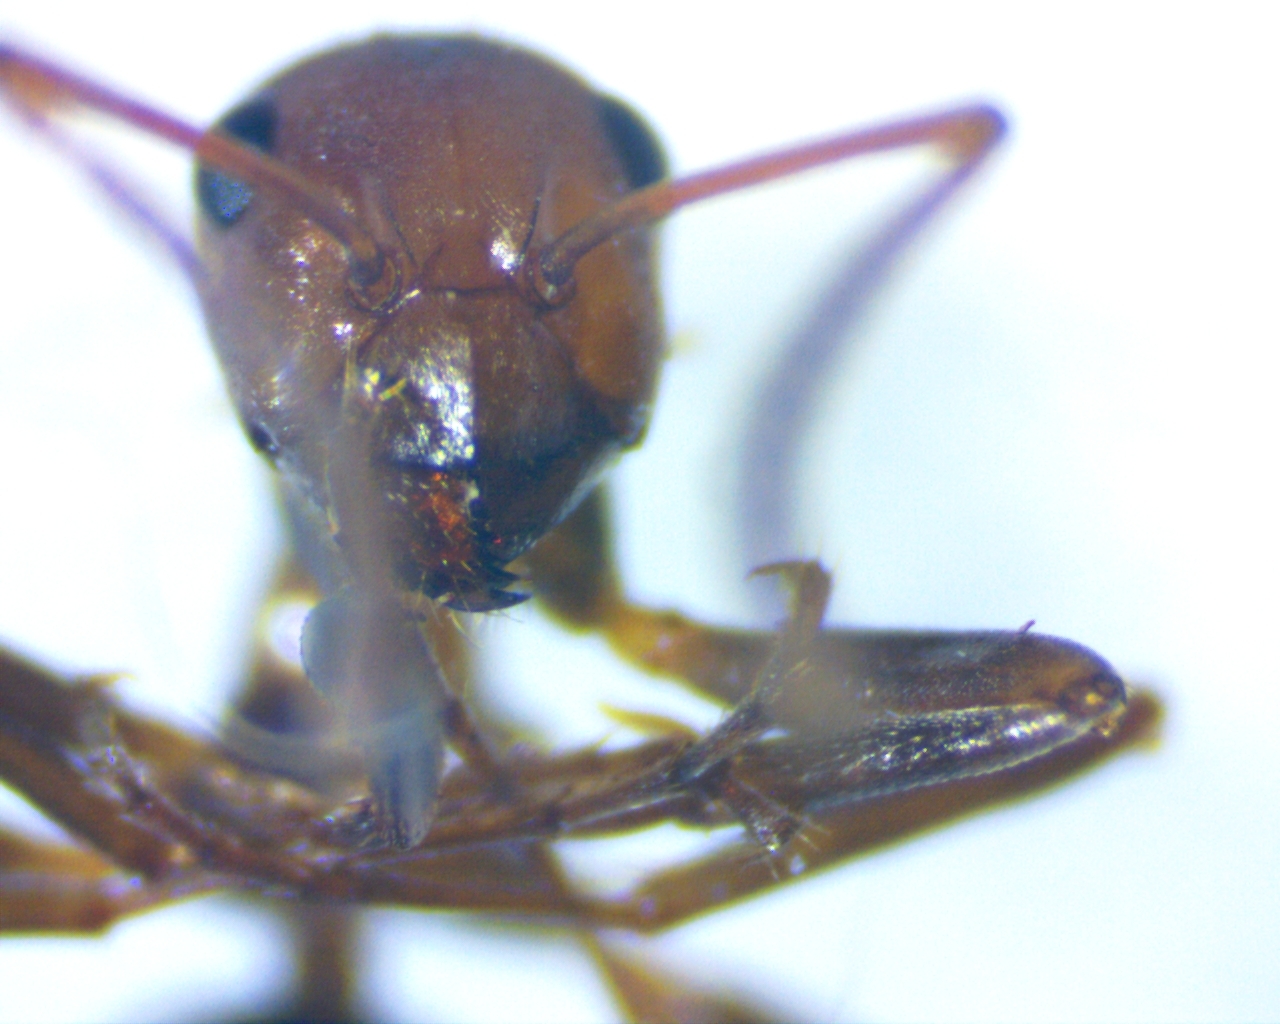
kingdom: Animalia
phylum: Arthropoda
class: Insecta
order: Hymenoptera
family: Formicidae
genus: Formica
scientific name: Formica integra
